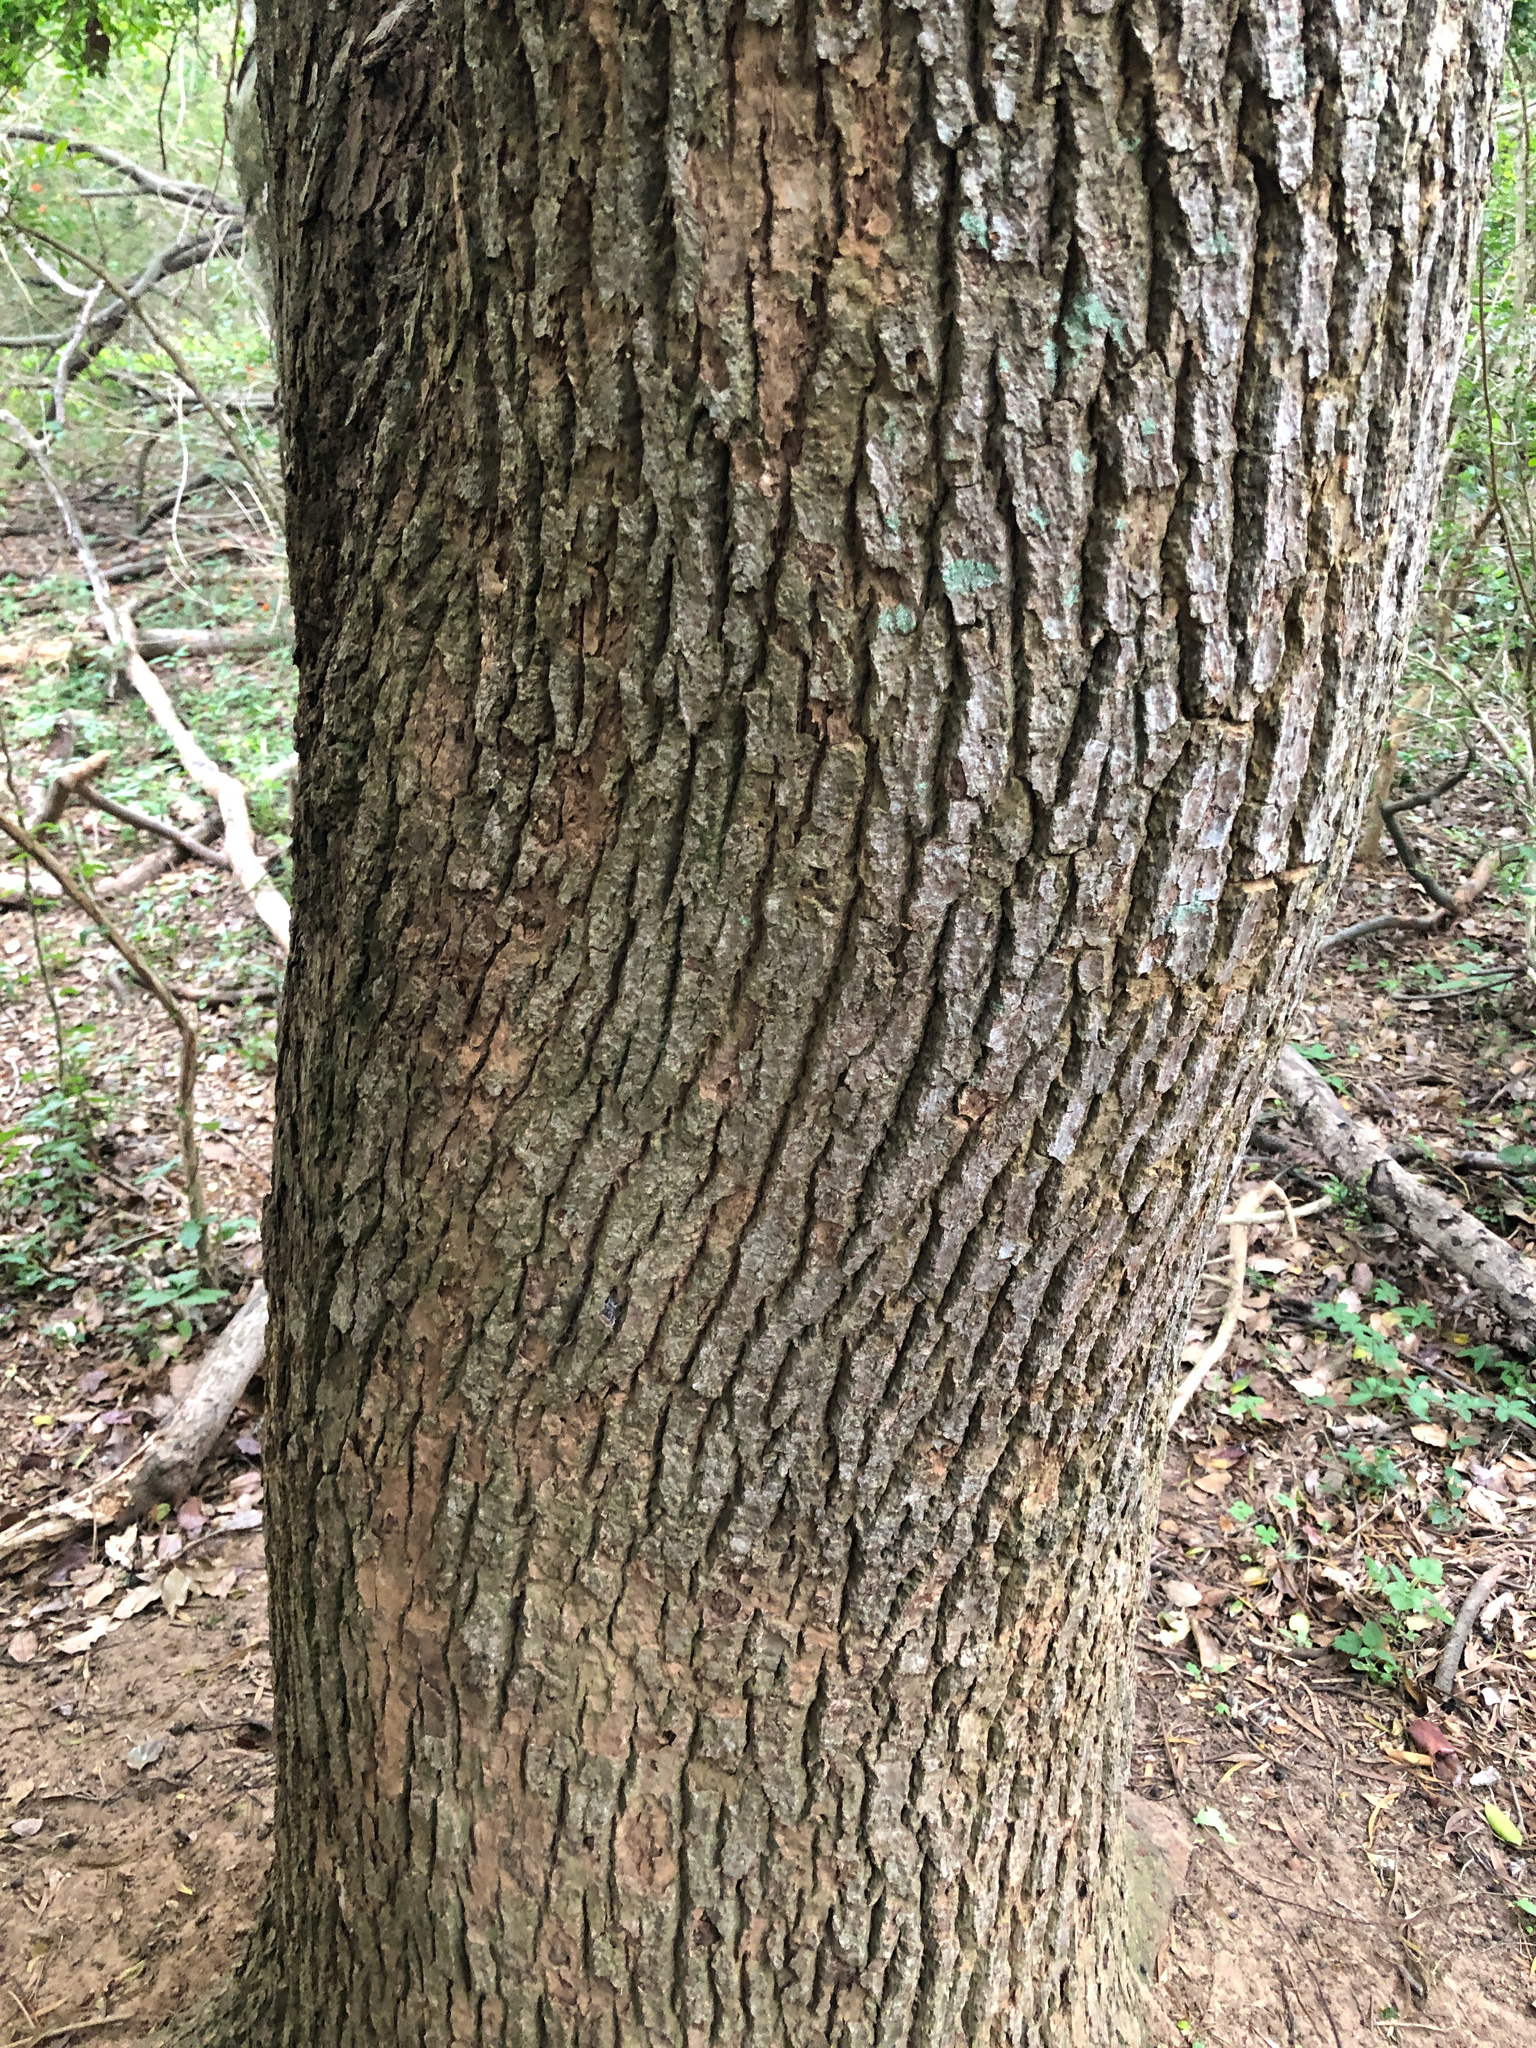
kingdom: Plantae
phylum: Tracheophyta
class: Magnoliopsida
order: Laurales
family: Lauraceae
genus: Cinnamomum
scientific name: Cinnamomum camphora
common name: Camphortree
